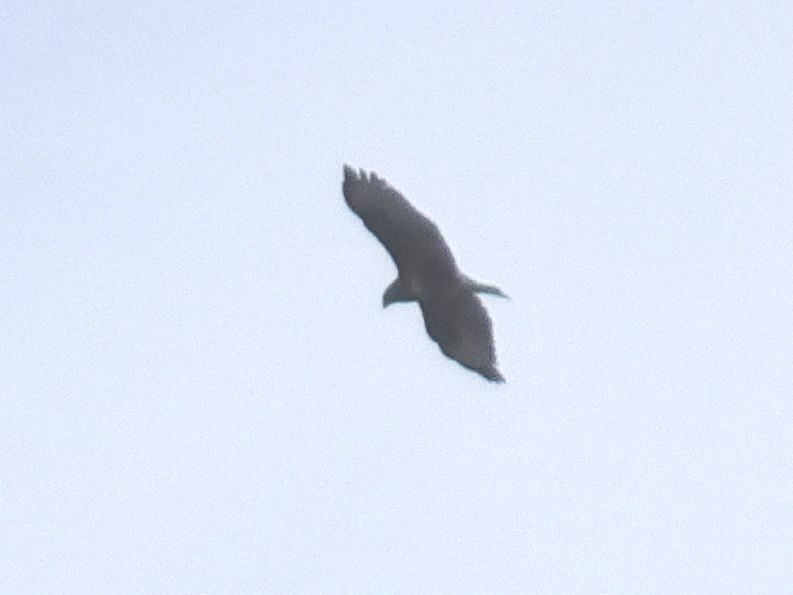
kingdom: Animalia
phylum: Chordata
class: Aves
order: Accipitriformes
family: Accipitridae
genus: Buteo
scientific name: Buteo buteo
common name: Common buzzard
